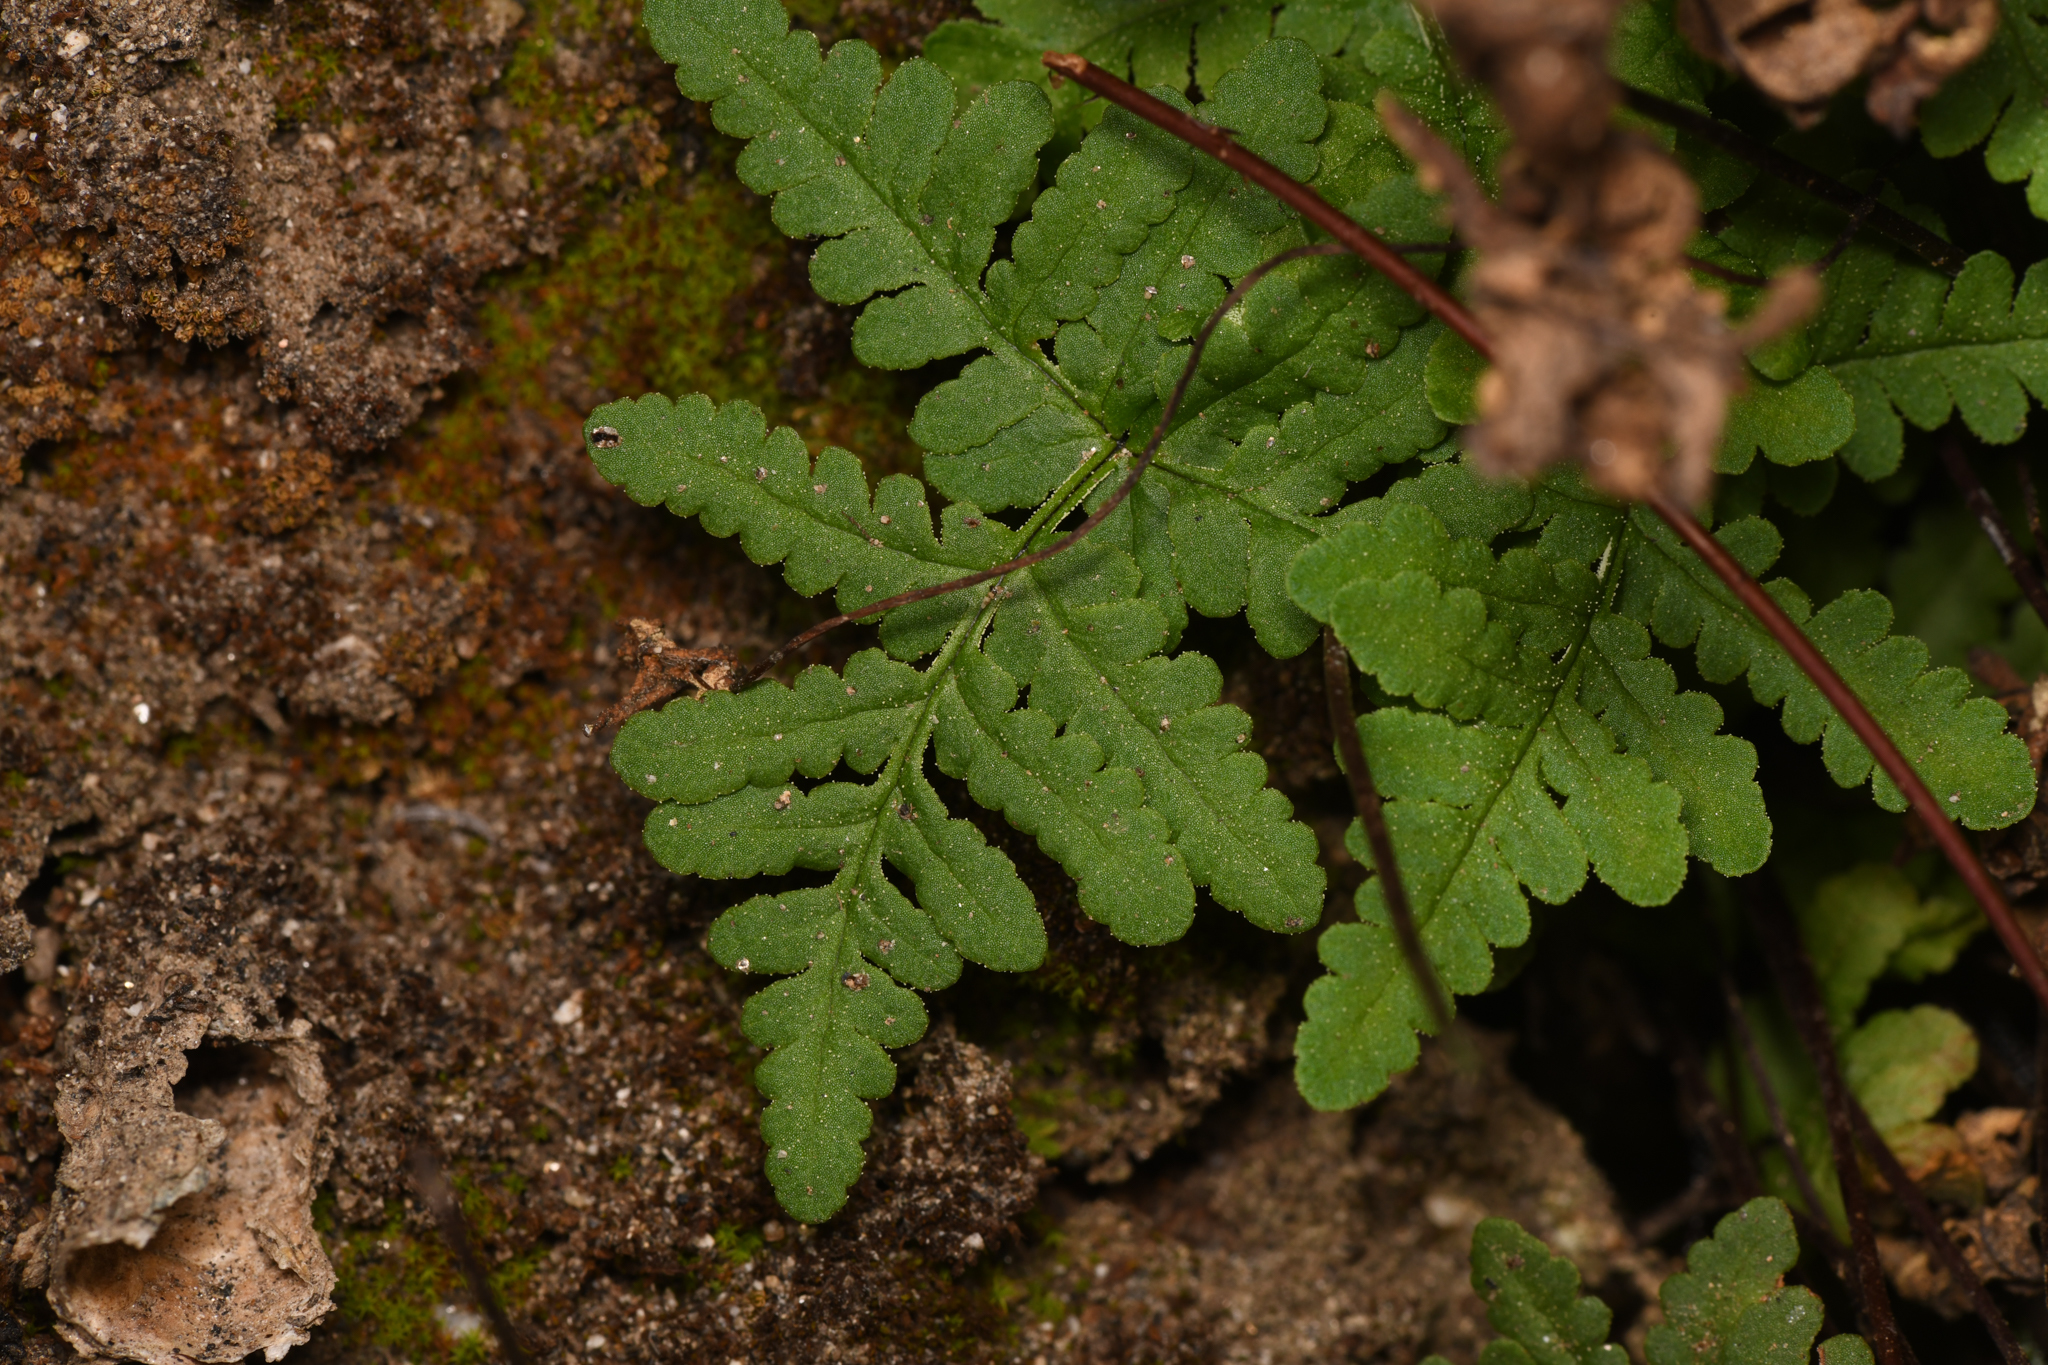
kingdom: Plantae
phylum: Tracheophyta
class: Polypodiopsida
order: Polypodiales
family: Pteridaceae
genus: Pentagramma
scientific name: Pentagramma maxonii
